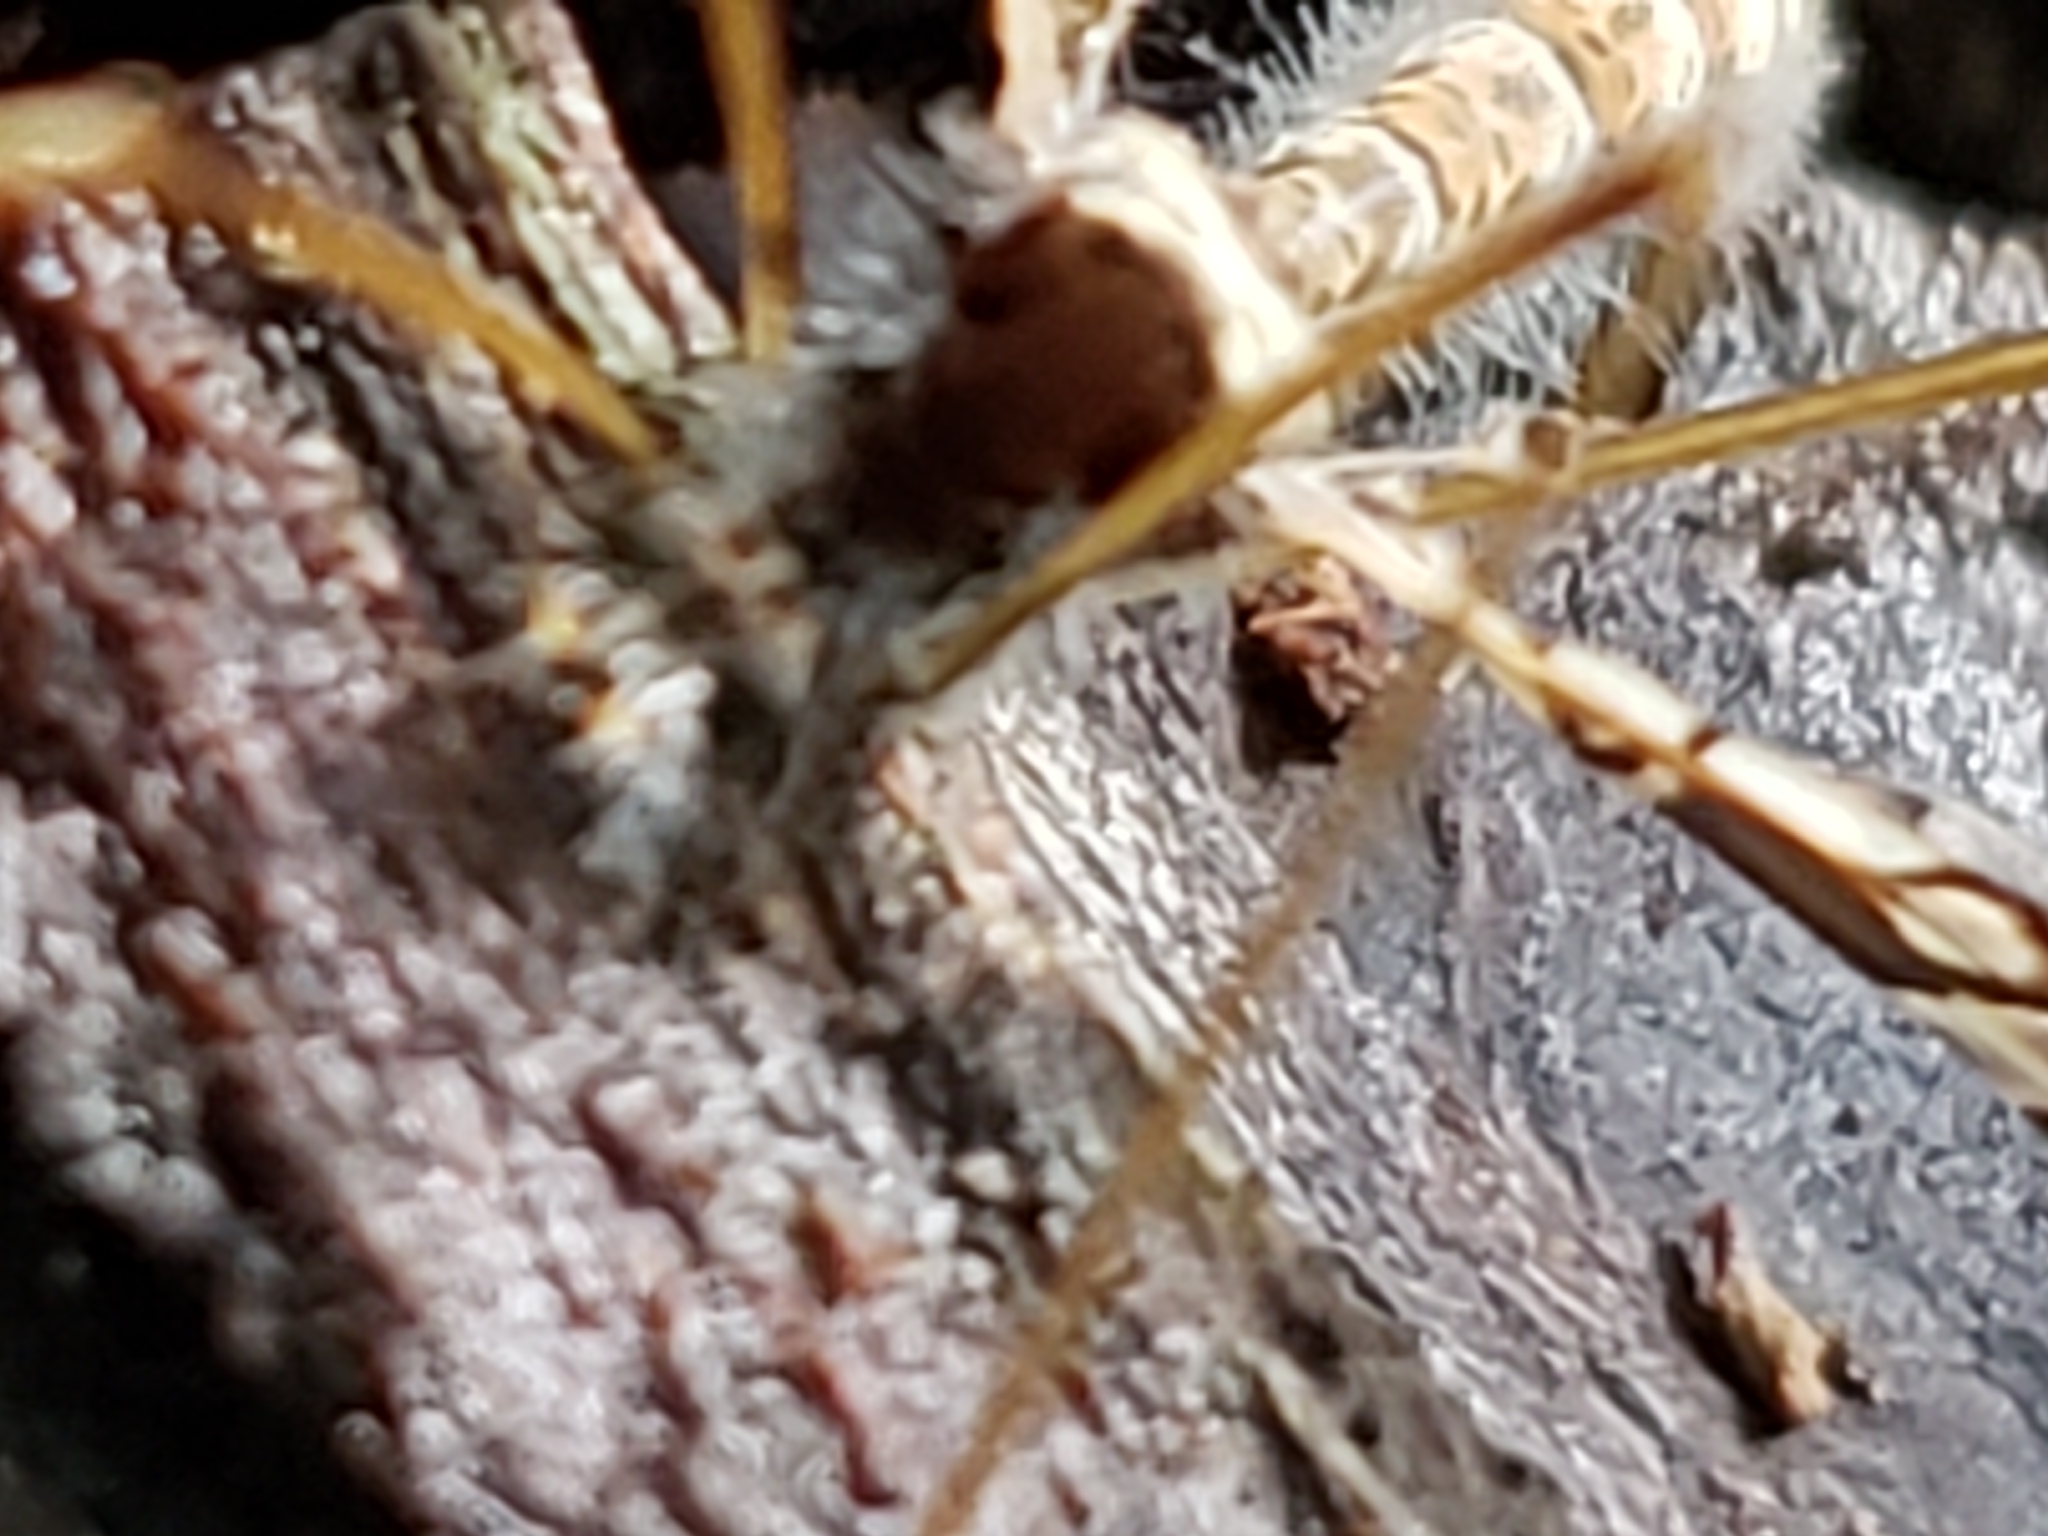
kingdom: Animalia
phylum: Arthropoda
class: Insecta
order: Diptera
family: Limoniidae
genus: Epiphragma
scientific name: Epiphragma solatrix
